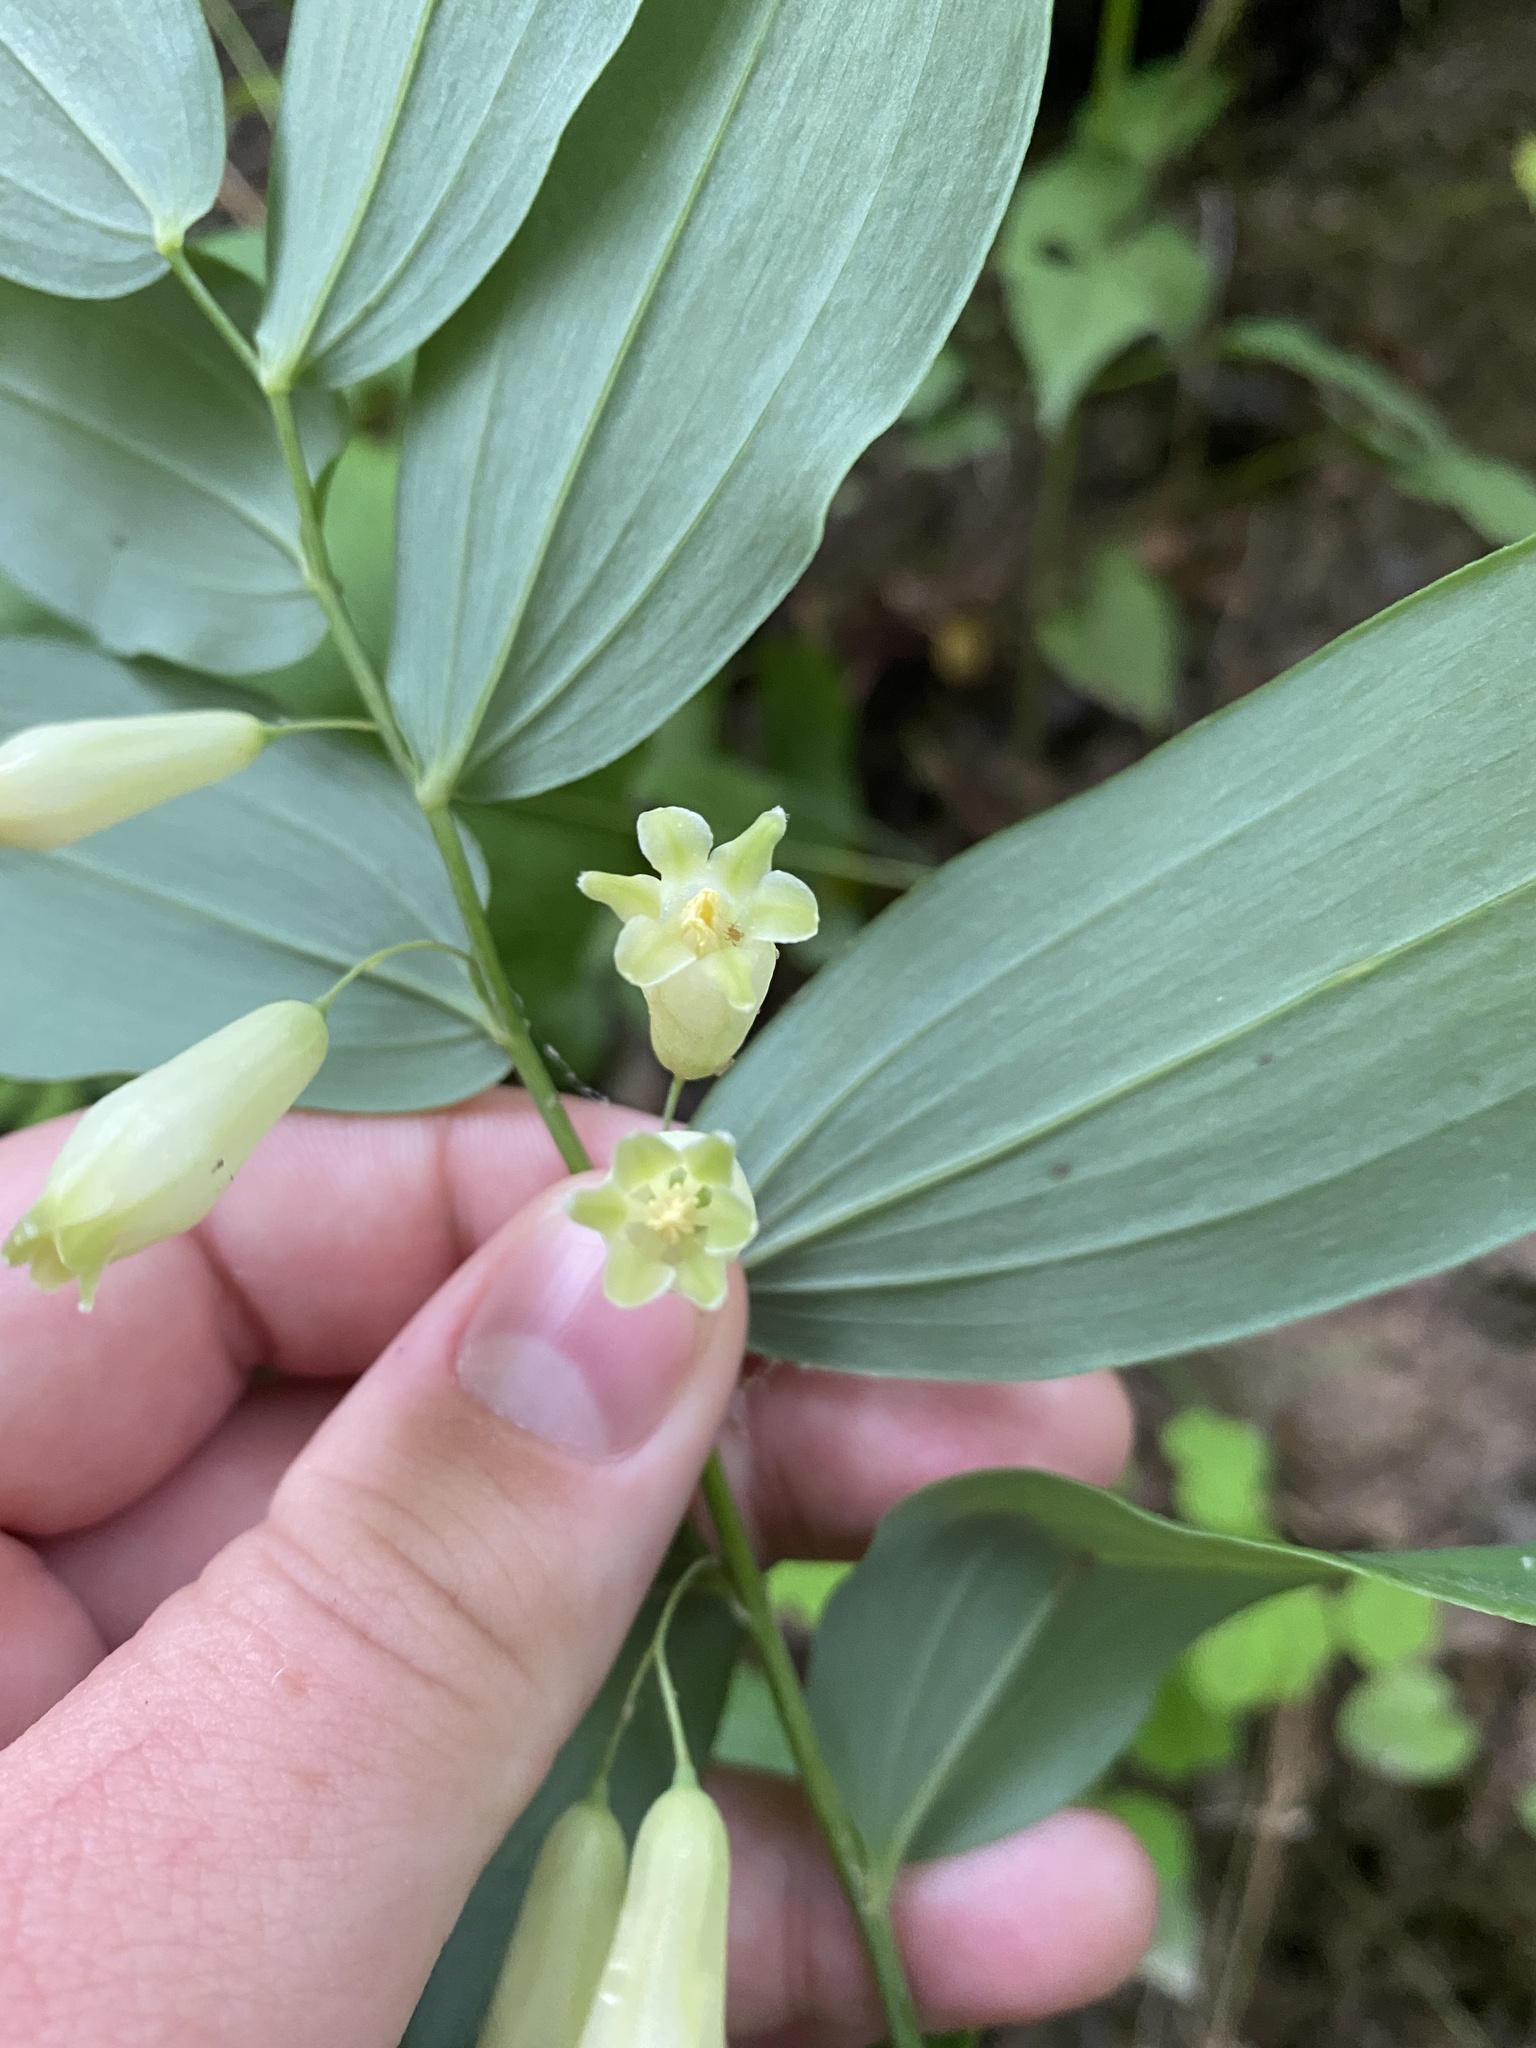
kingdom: Plantae
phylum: Tracheophyta
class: Liliopsida
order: Asparagales
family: Asparagaceae
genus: Polygonatum
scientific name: Polygonatum biflorum
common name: American solomon's-seal
